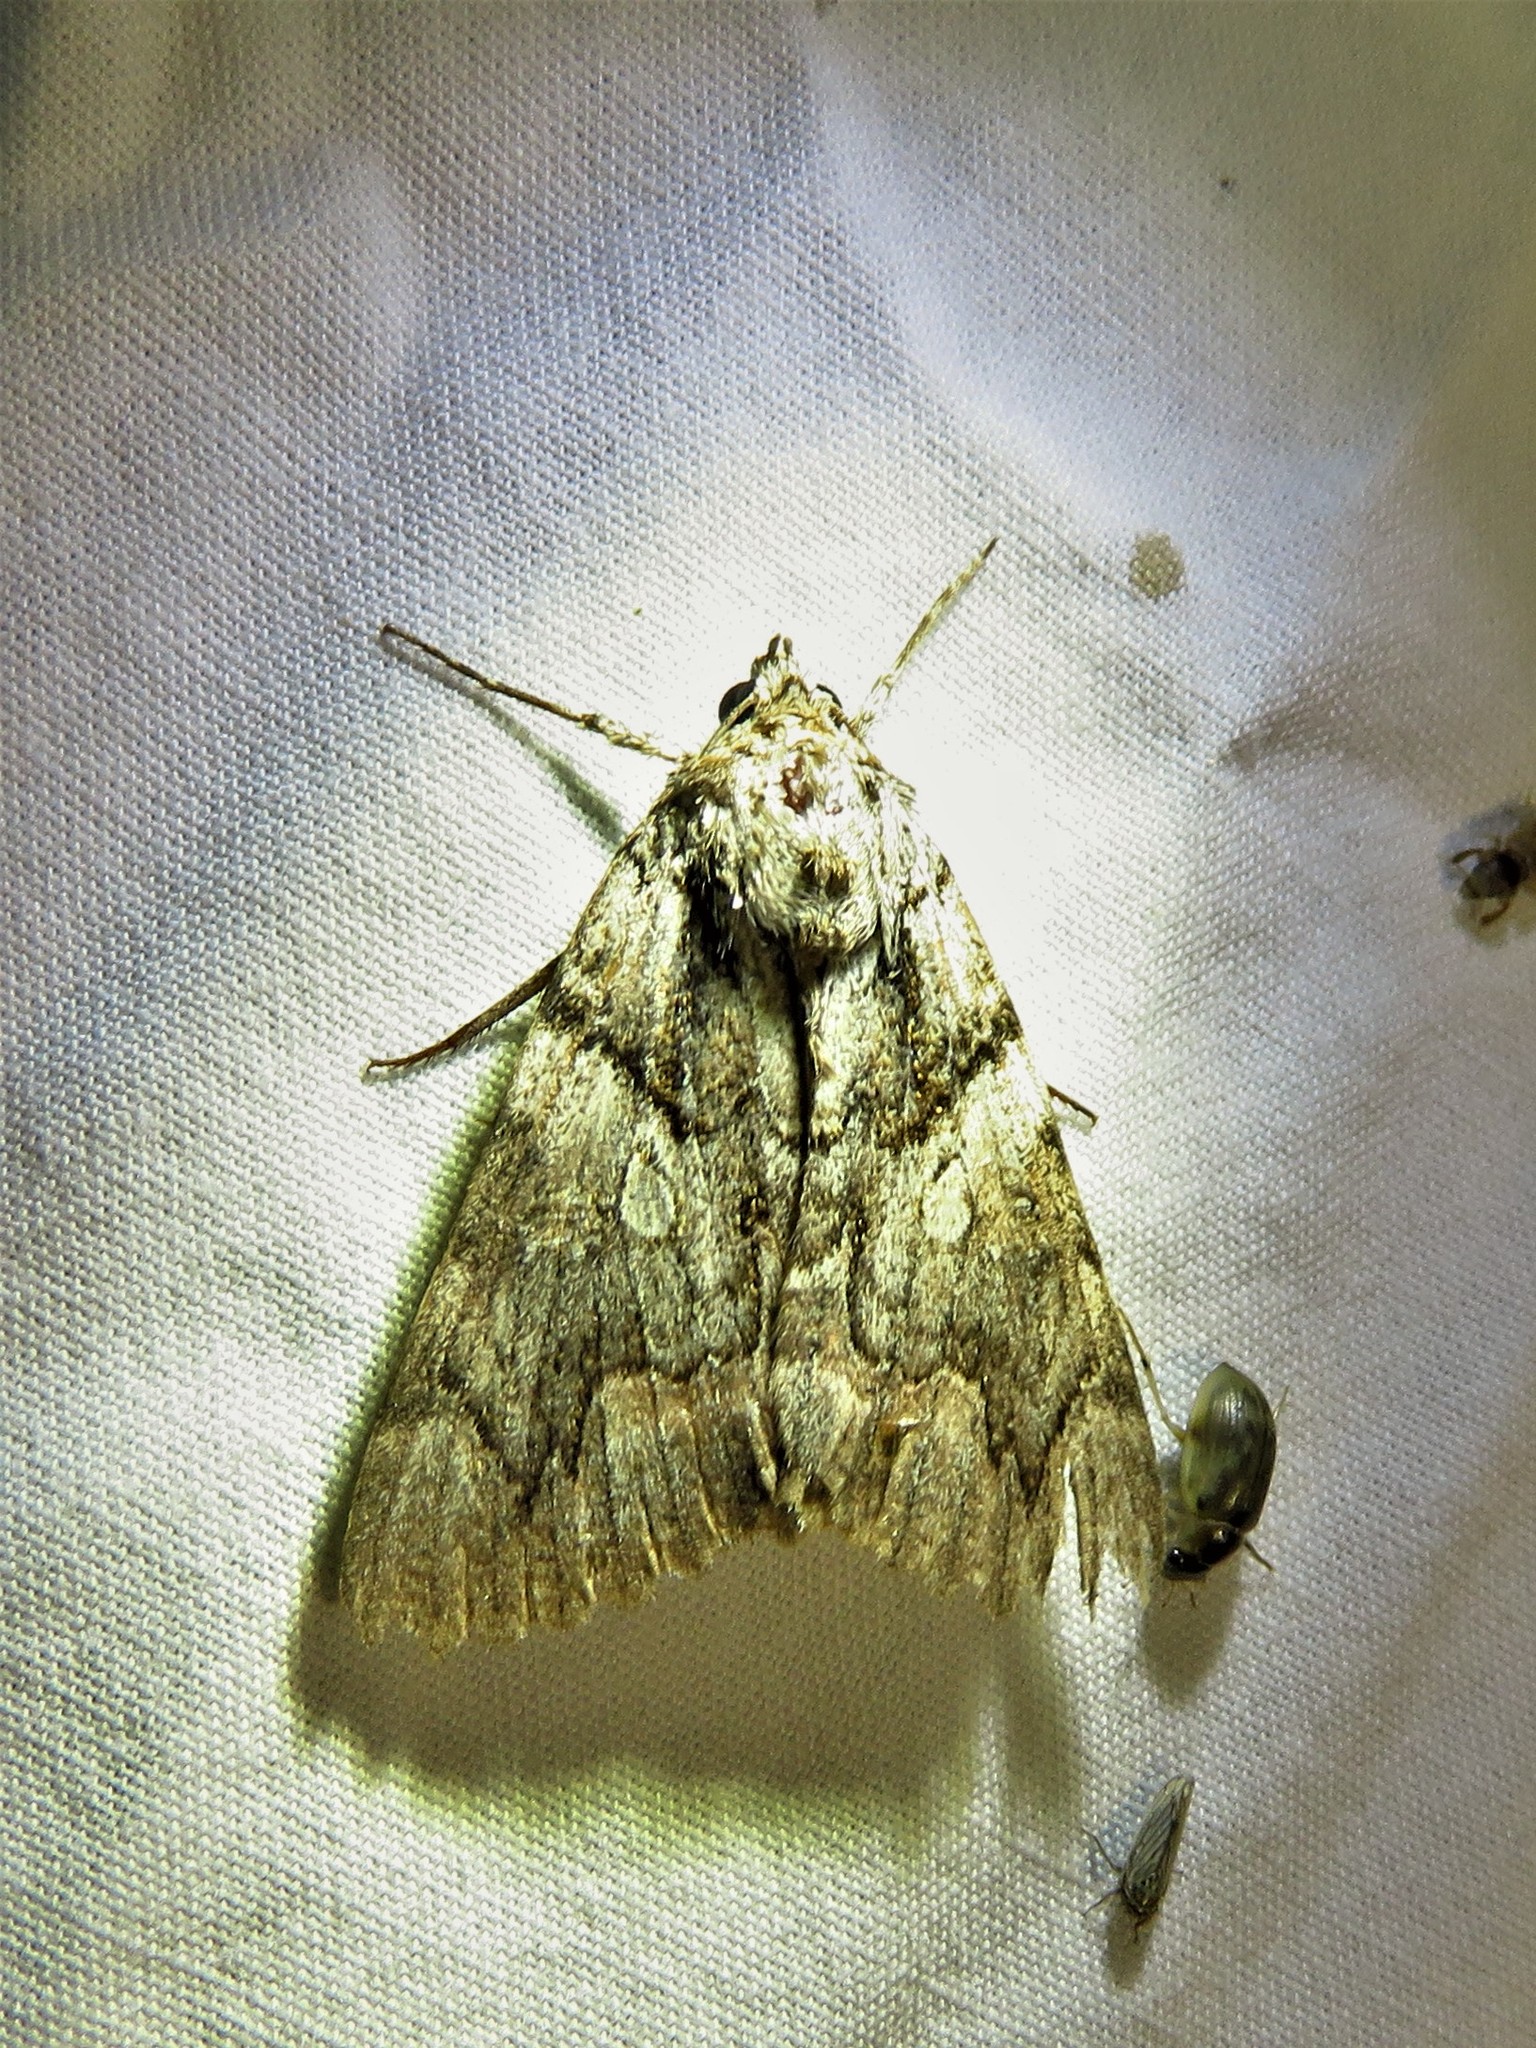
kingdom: Animalia
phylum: Arthropoda
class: Insecta
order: Lepidoptera
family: Erebidae
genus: Catocala
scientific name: Catocala verrilliana
